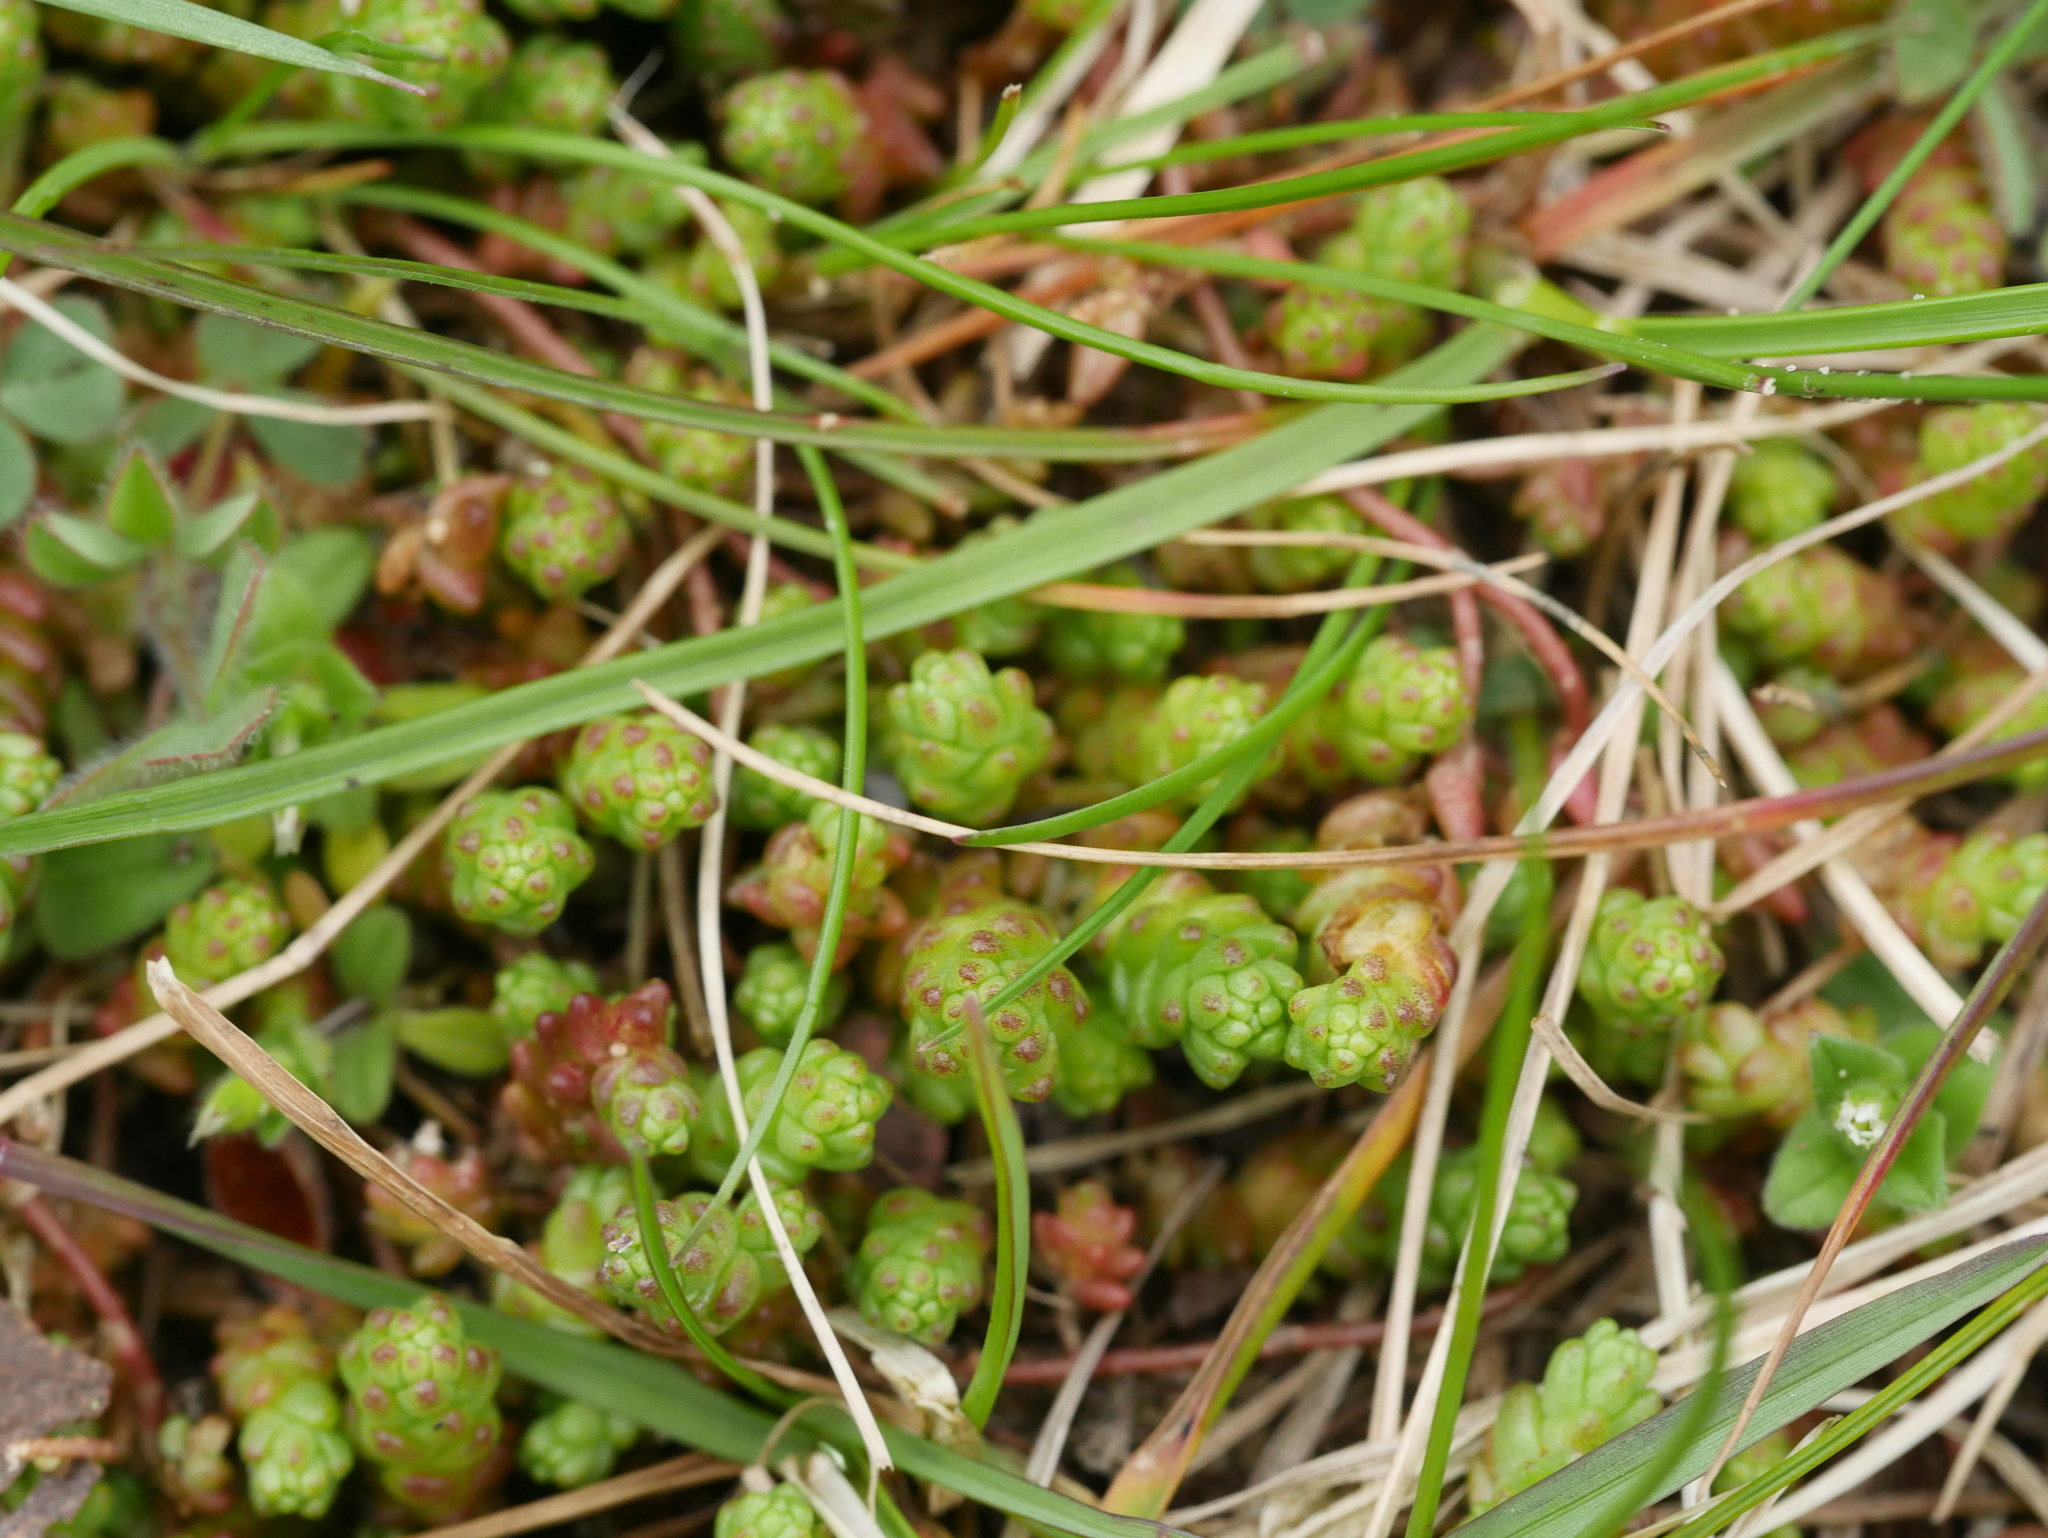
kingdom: Plantae
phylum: Tracheophyta
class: Magnoliopsida
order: Saxifragales
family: Crassulaceae
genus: Sedum
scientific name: Sedum acre
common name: Biting stonecrop
